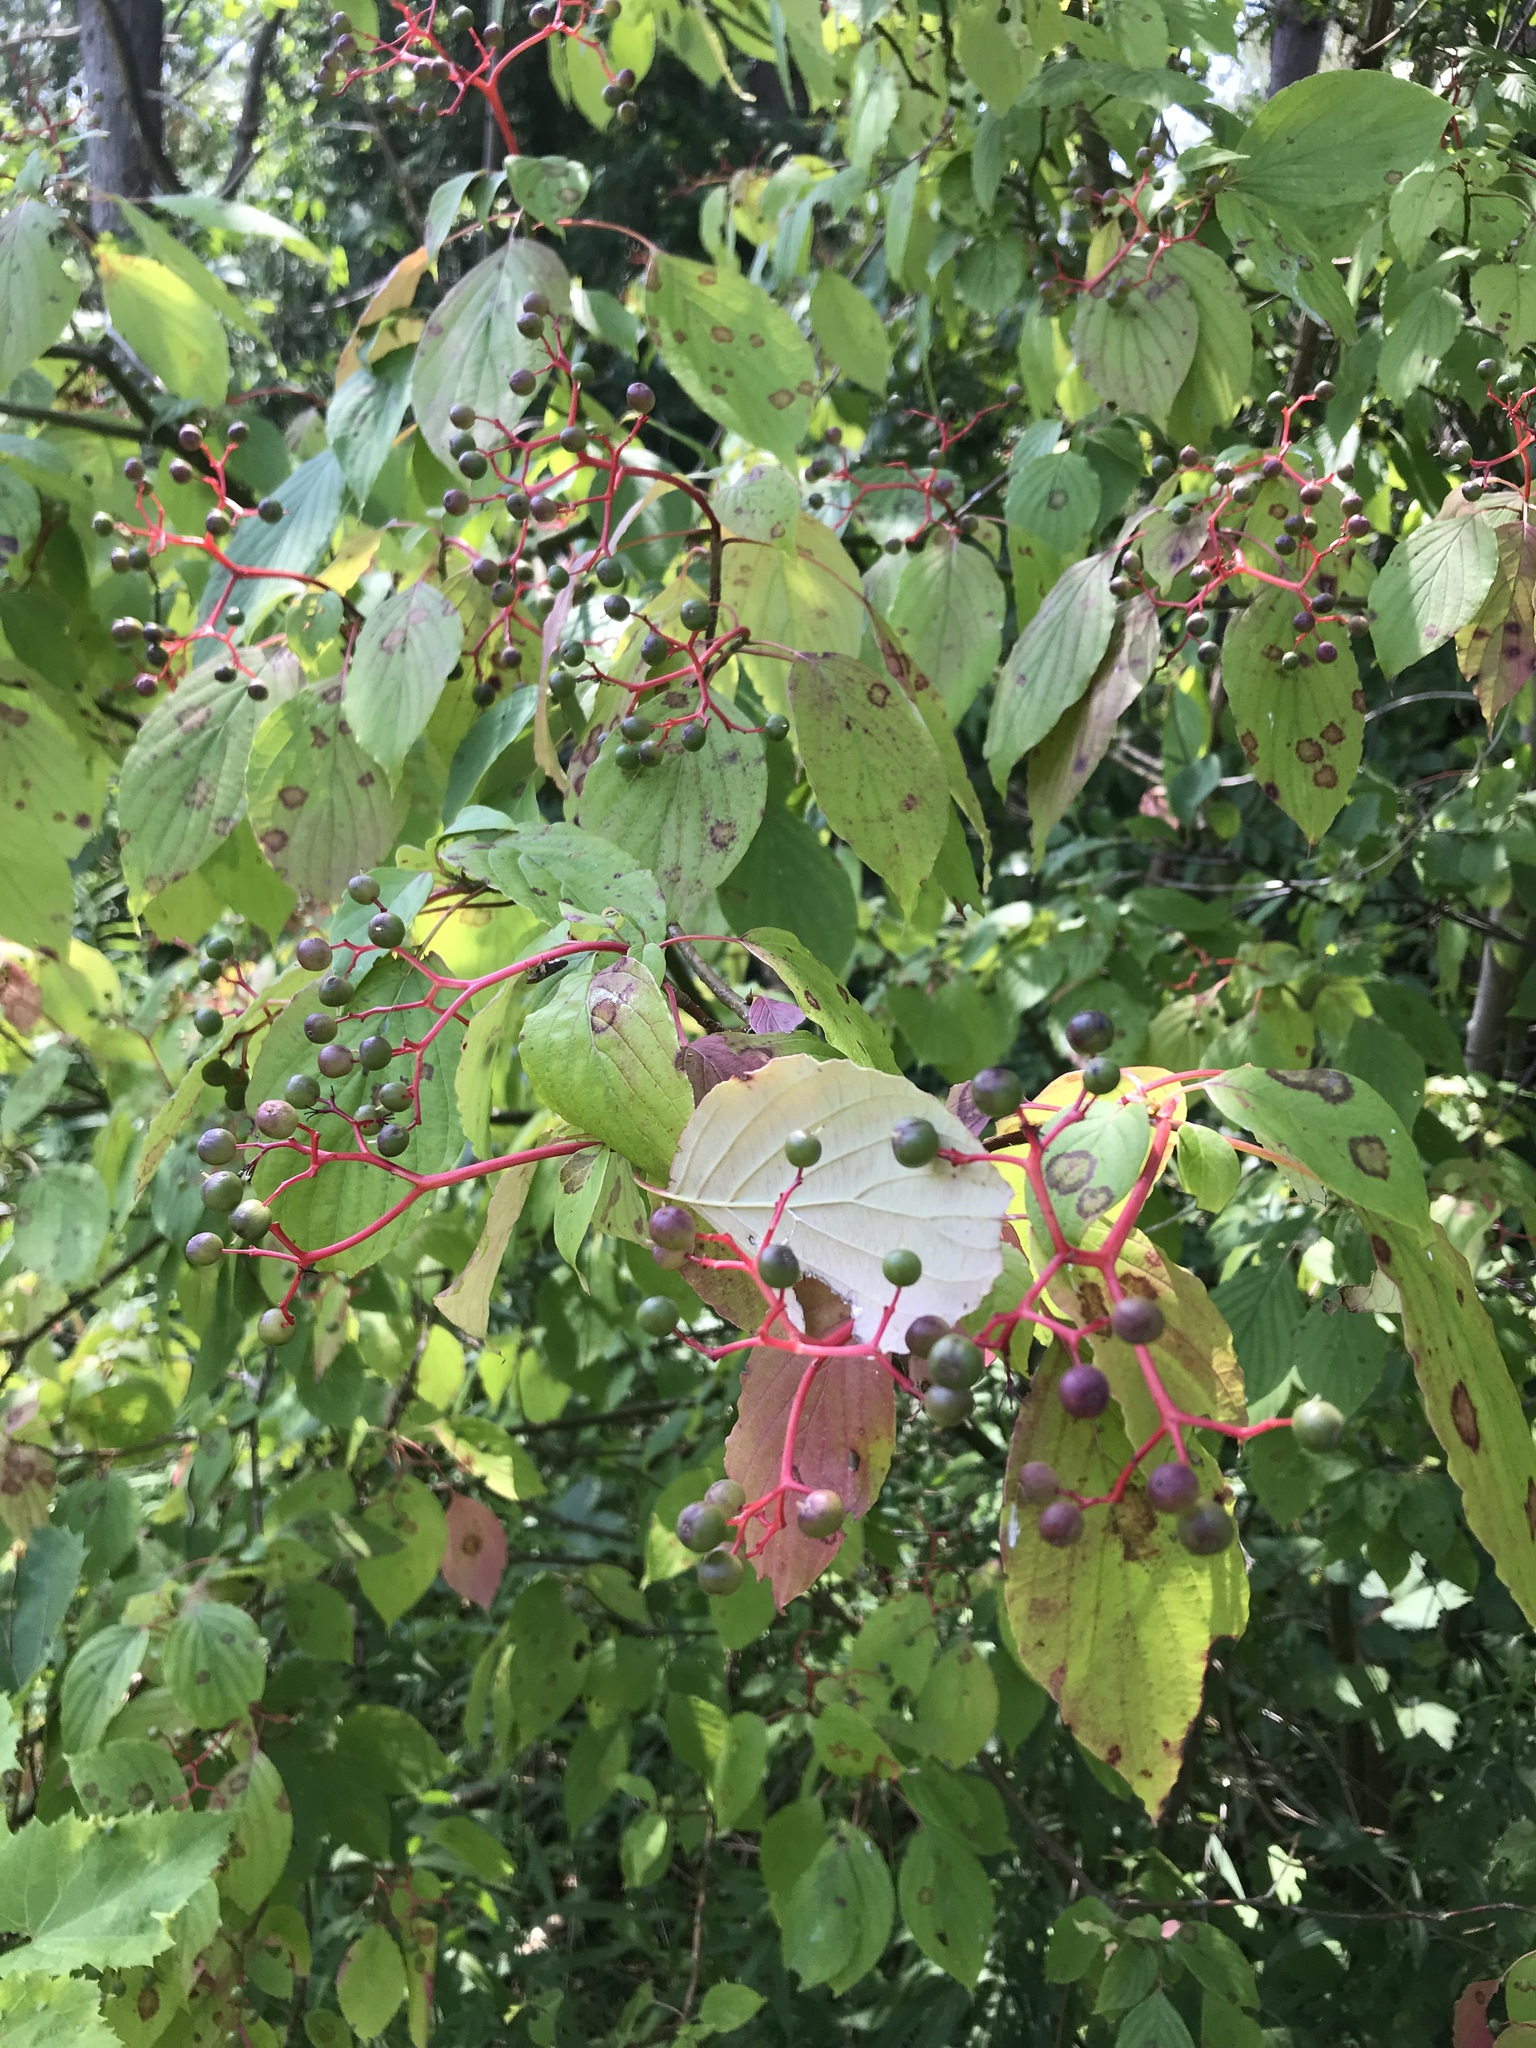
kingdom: Plantae
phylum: Tracheophyta
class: Magnoliopsida
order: Cornales
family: Cornaceae
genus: Cornus
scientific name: Cornus alternifolia
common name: Pagoda dogwood
